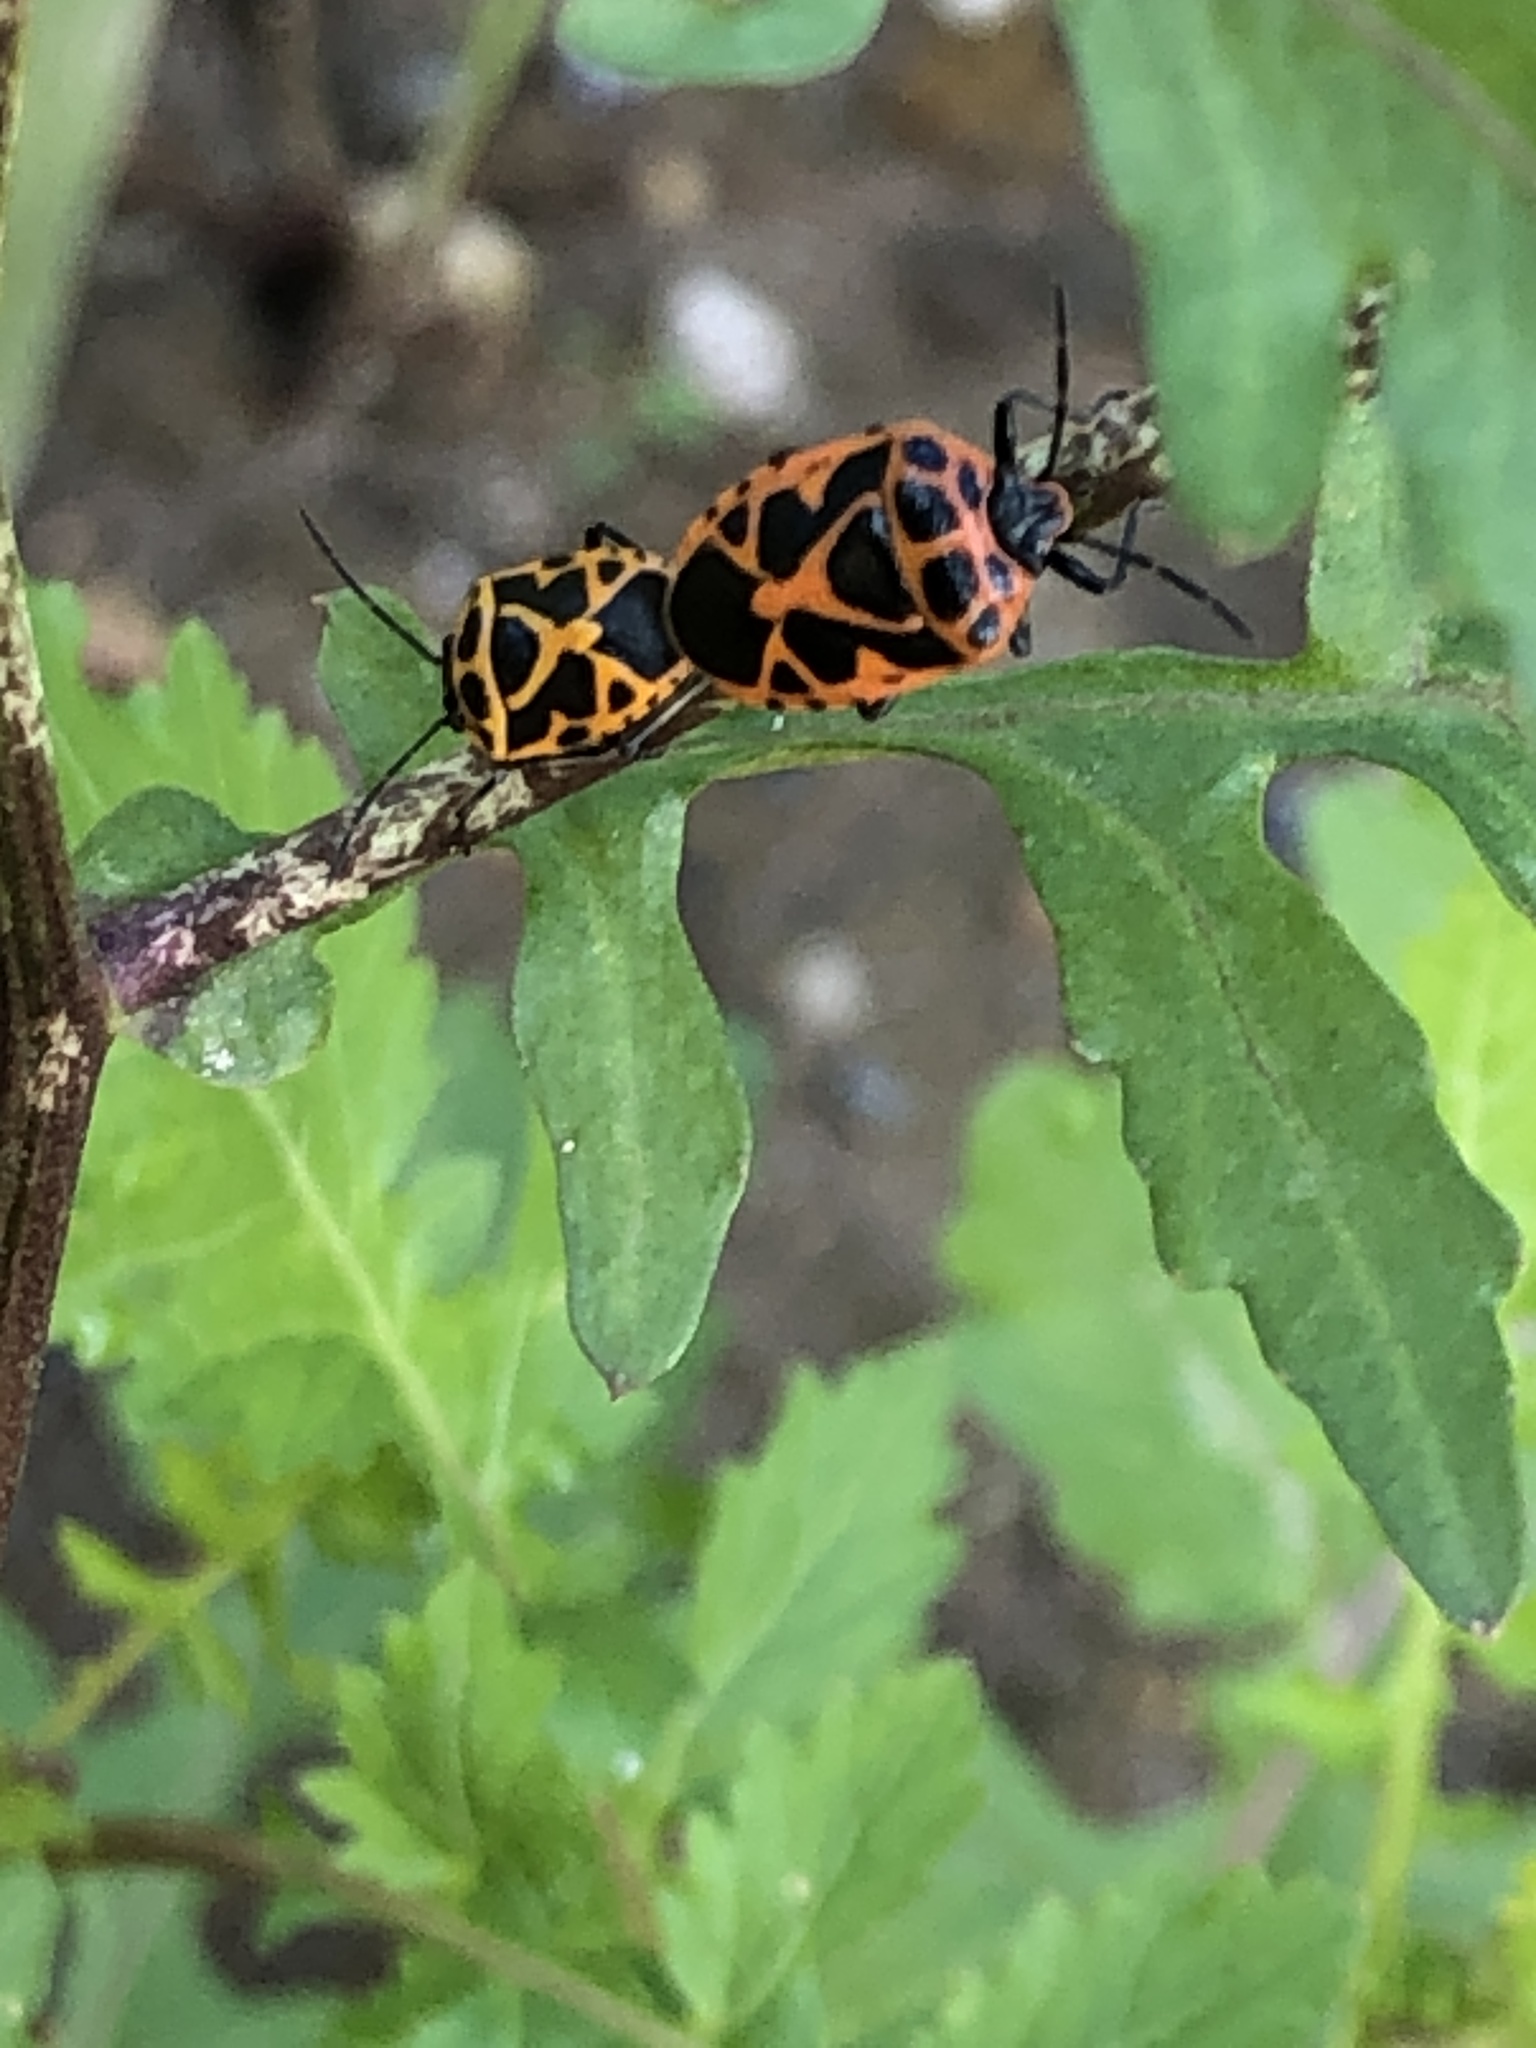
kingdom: Animalia
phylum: Arthropoda
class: Insecta
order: Hemiptera
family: Pentatomidae
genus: Eurydema
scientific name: Eurydema dominulus
